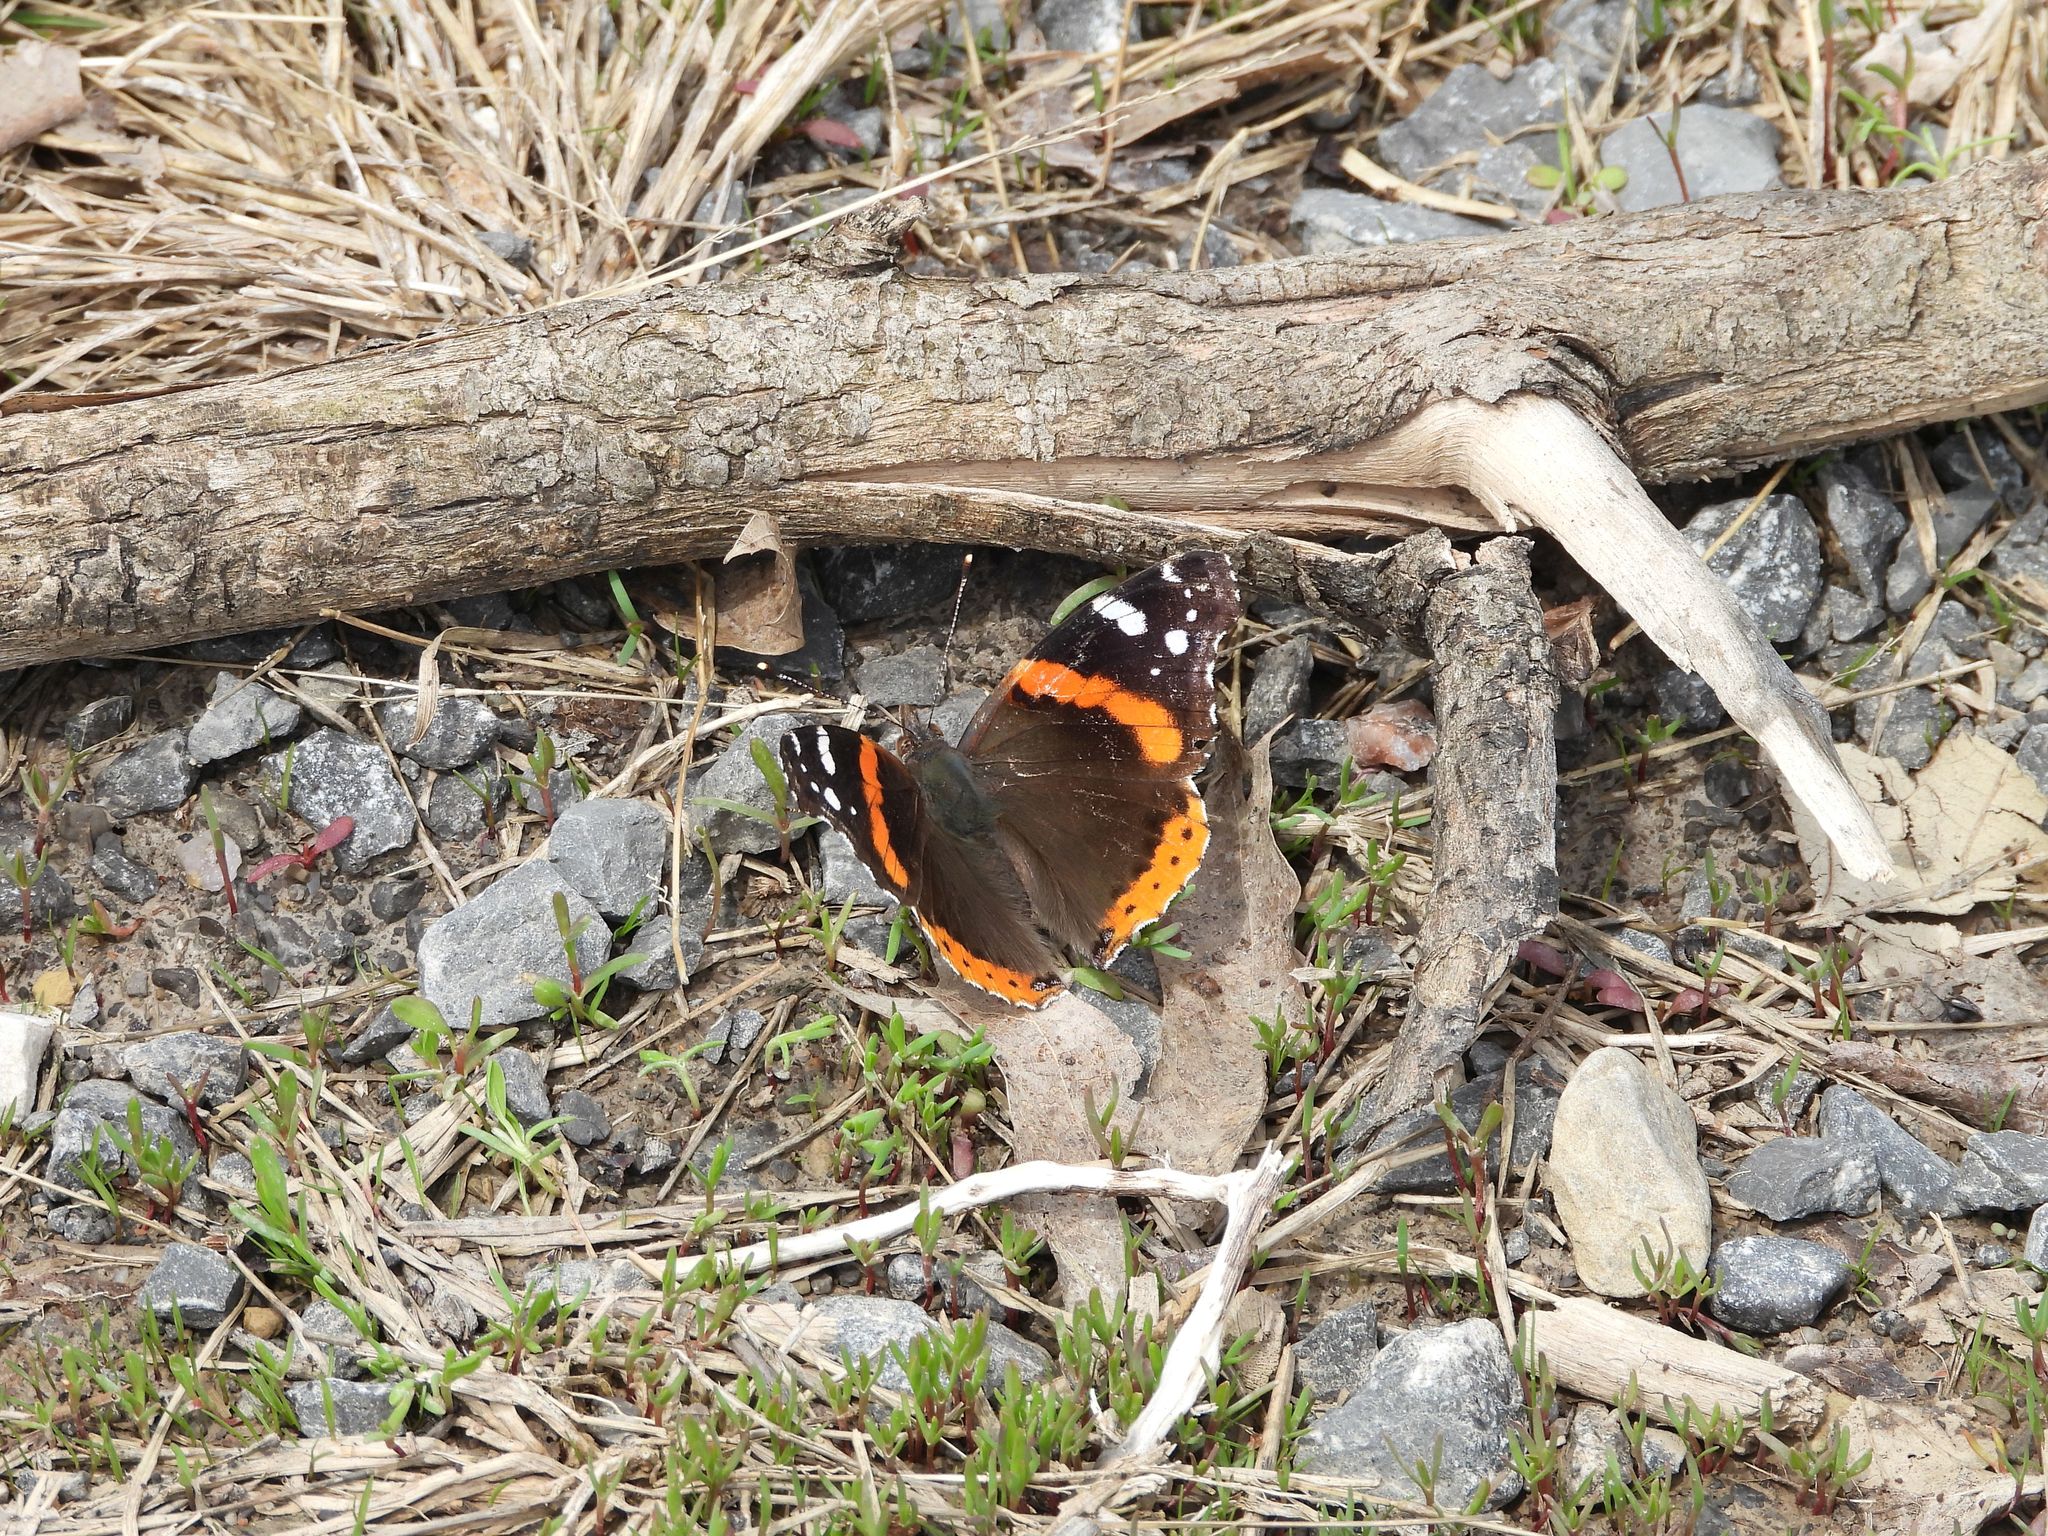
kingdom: Animalia
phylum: Arthropoda
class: Insecta
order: Lepidoptera
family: Nymphalidae
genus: Vanessa
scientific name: Vanessa atalanta
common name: Red admiral
